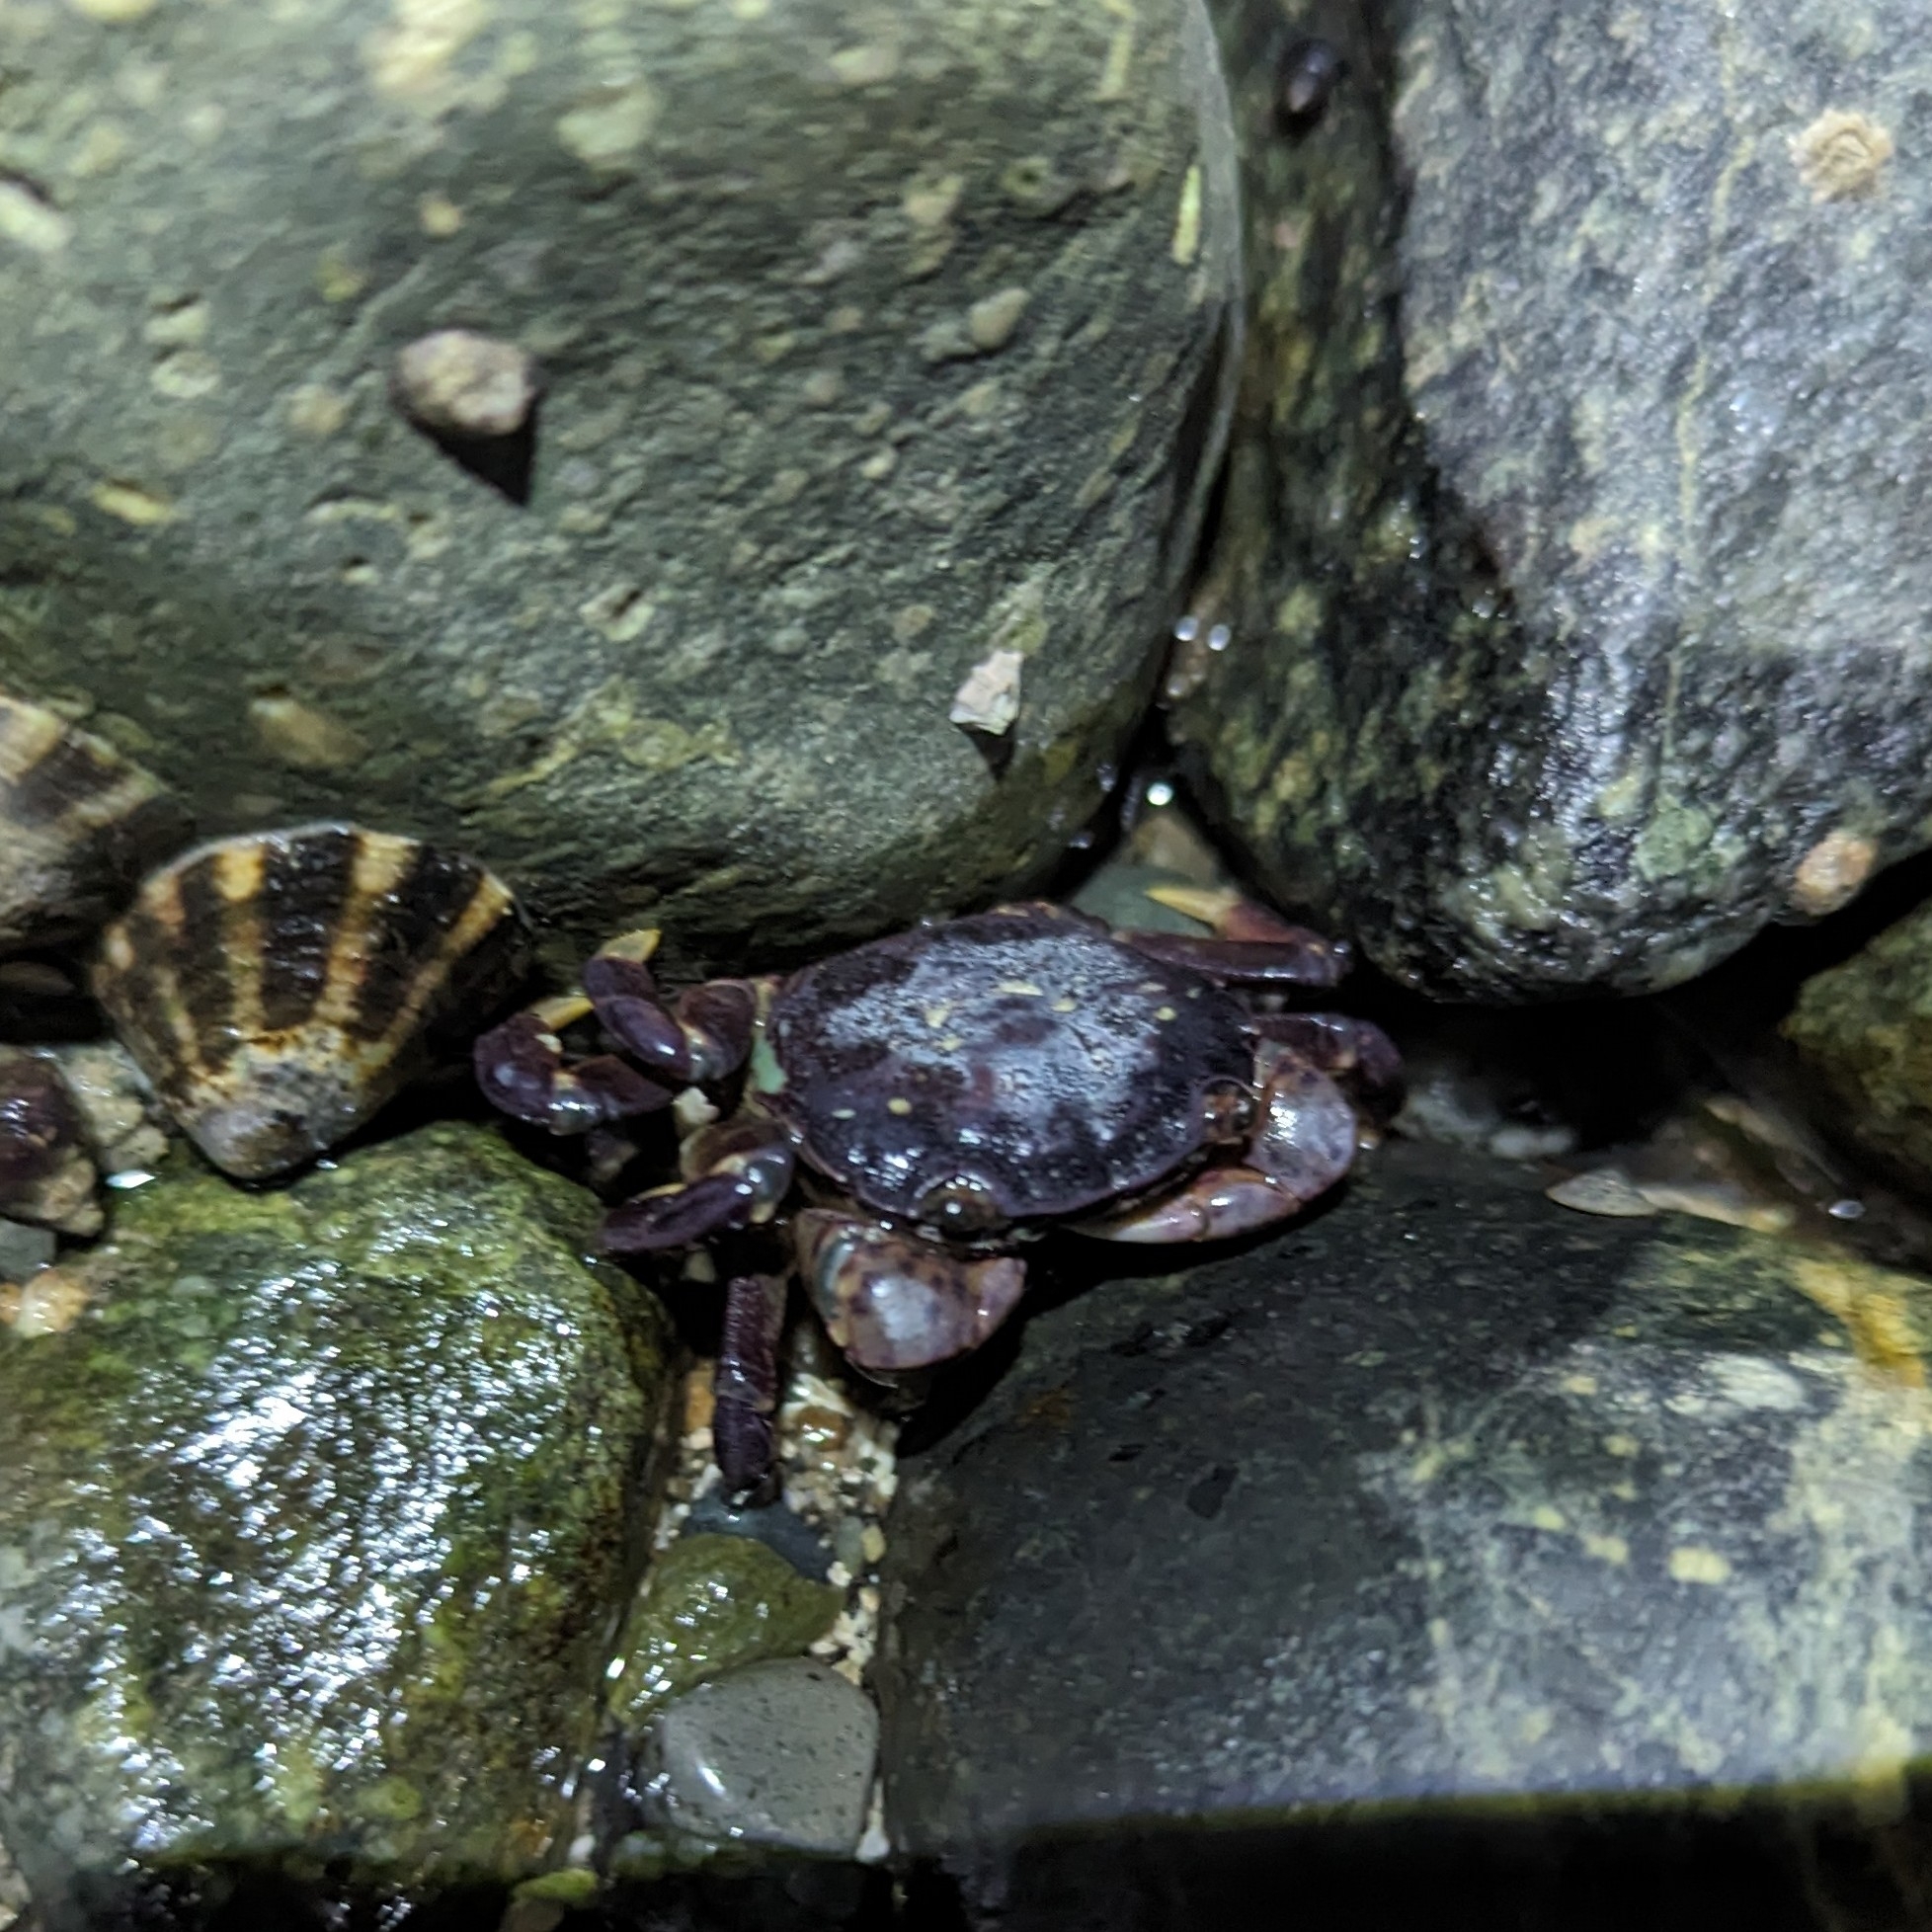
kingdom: Animalia
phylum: Arthropoda
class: Malacostraca
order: Decapoda
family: Varunidae
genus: Hemigrapsus
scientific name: Hemigrapsus nudus
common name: Purple shore crab
